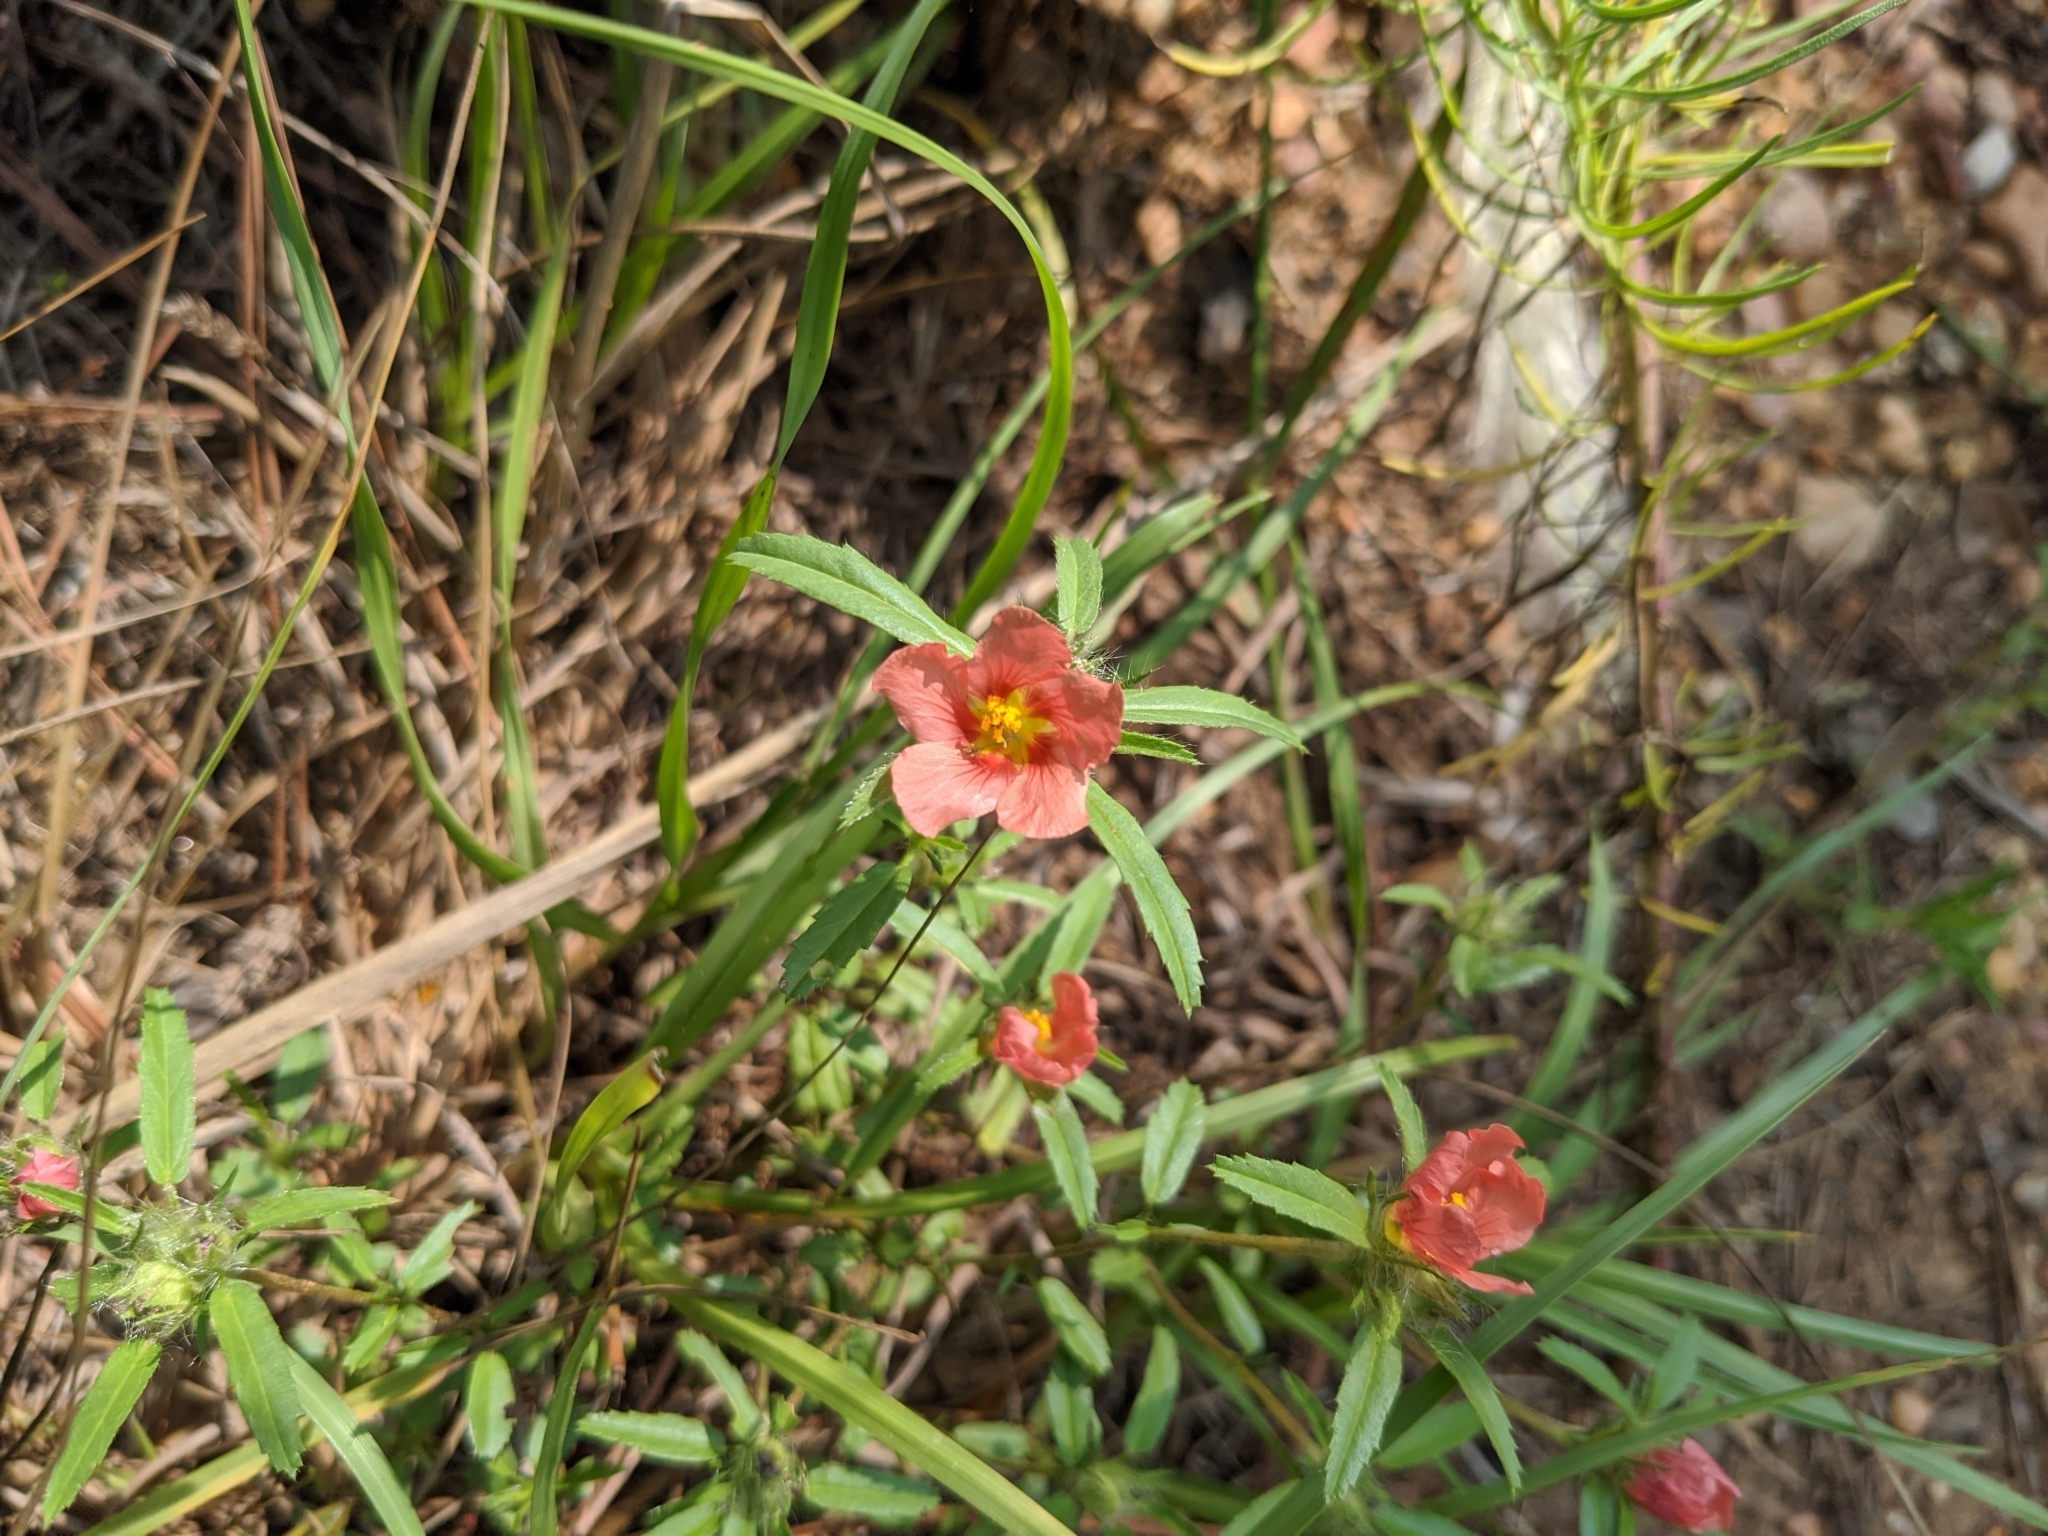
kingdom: Plantae
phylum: Tracheophyta
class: Magnoliopsida
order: Malvales
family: Malvaceae
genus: Sida
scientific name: Sida ciliaris
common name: Bracted fanpetals
